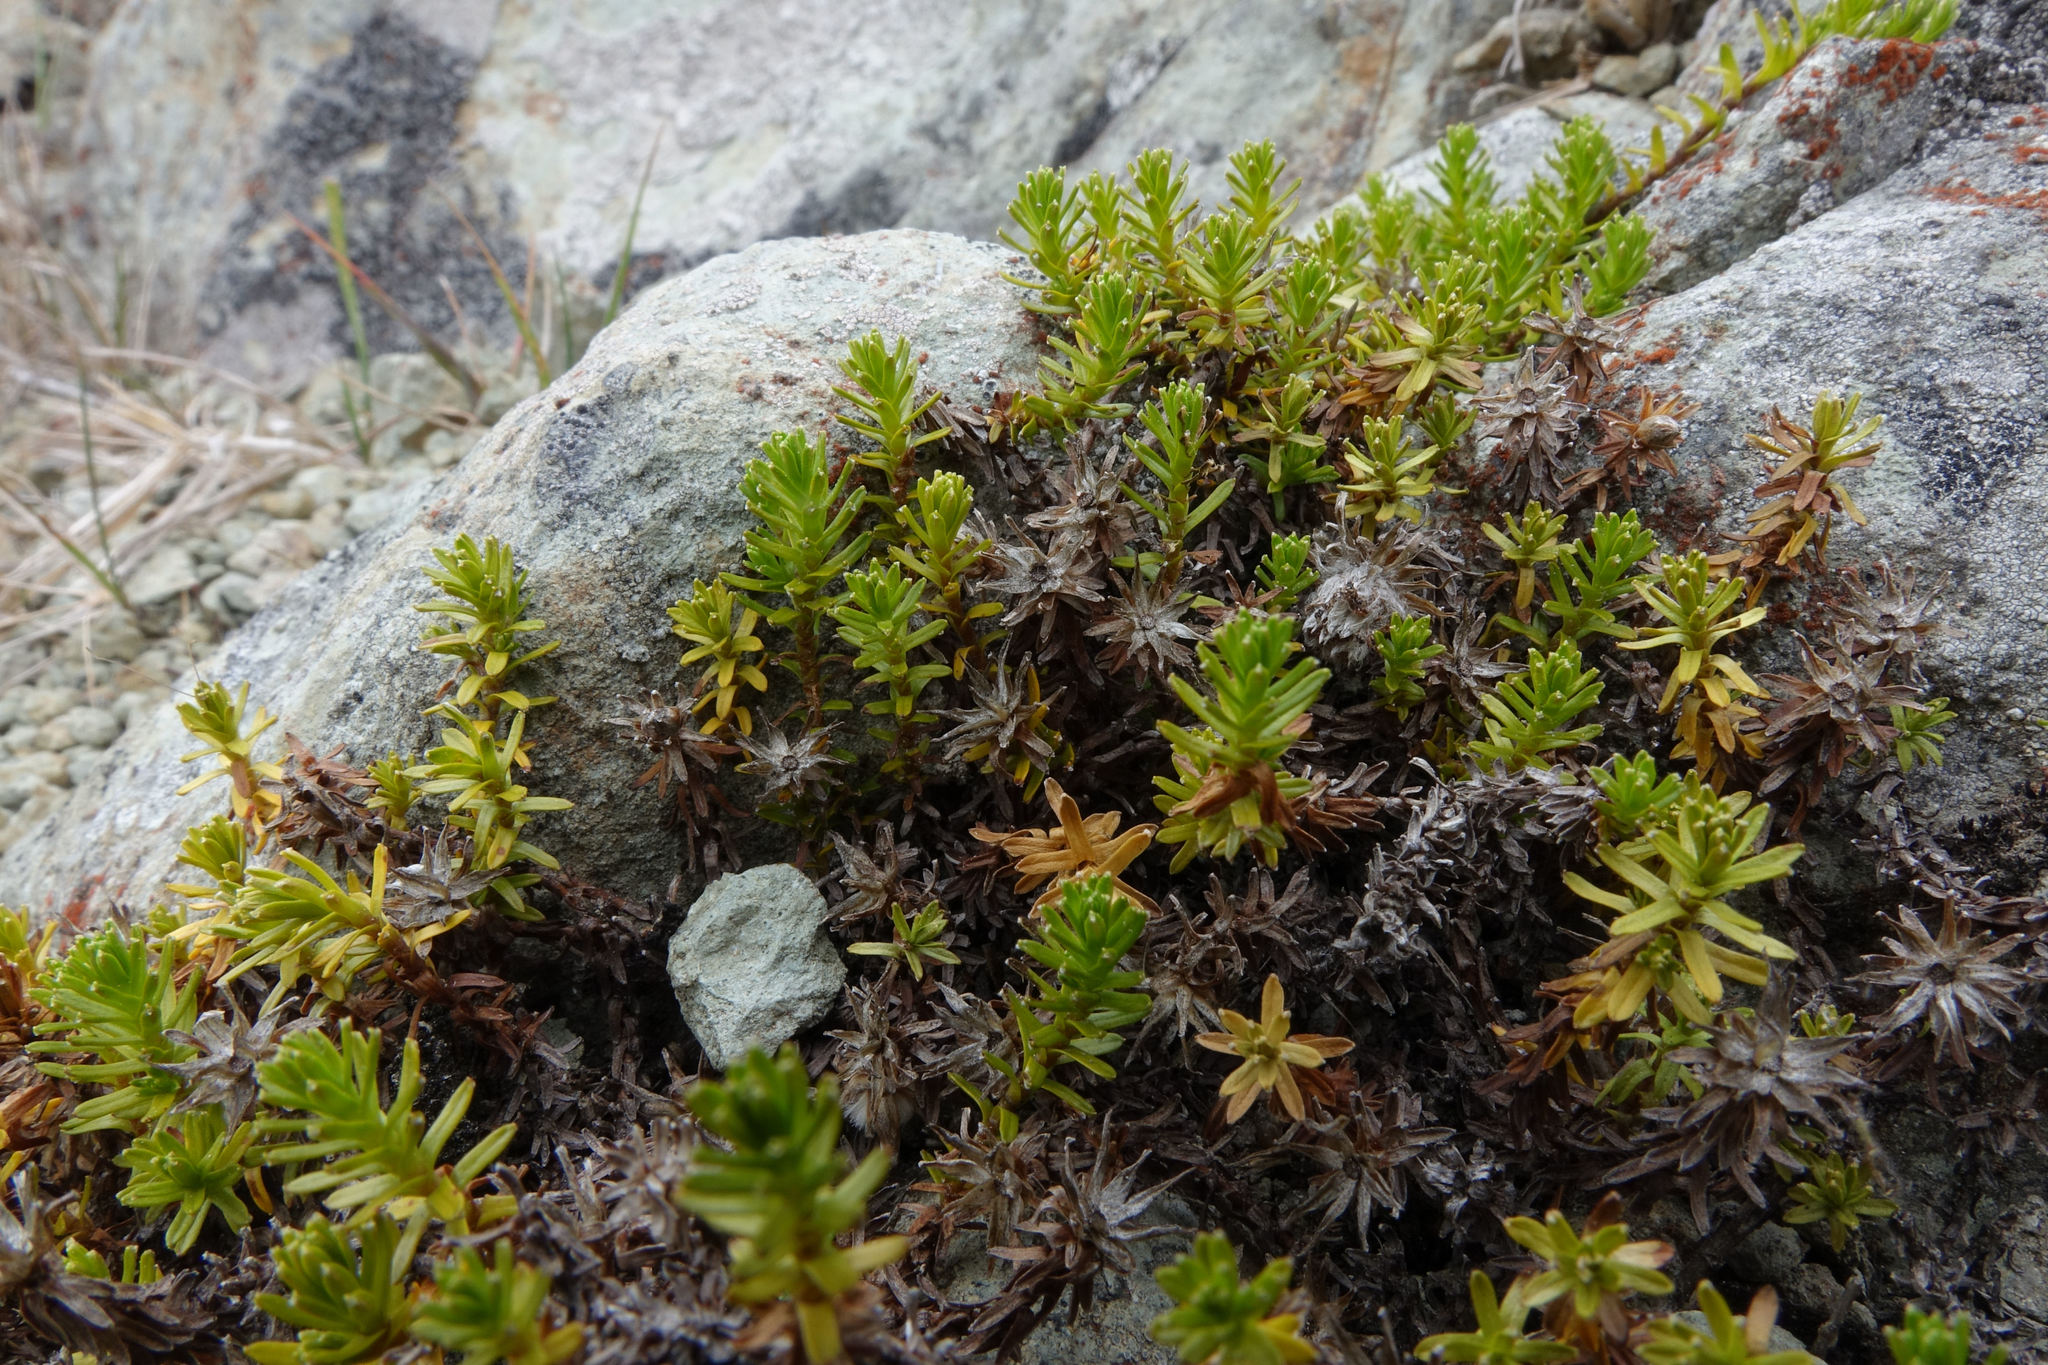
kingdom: Plantae
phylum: Tracheophyta
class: Magnoliopsida
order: Asterales
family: Asteraceae
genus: Raoulia
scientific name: Raoulia glabra
